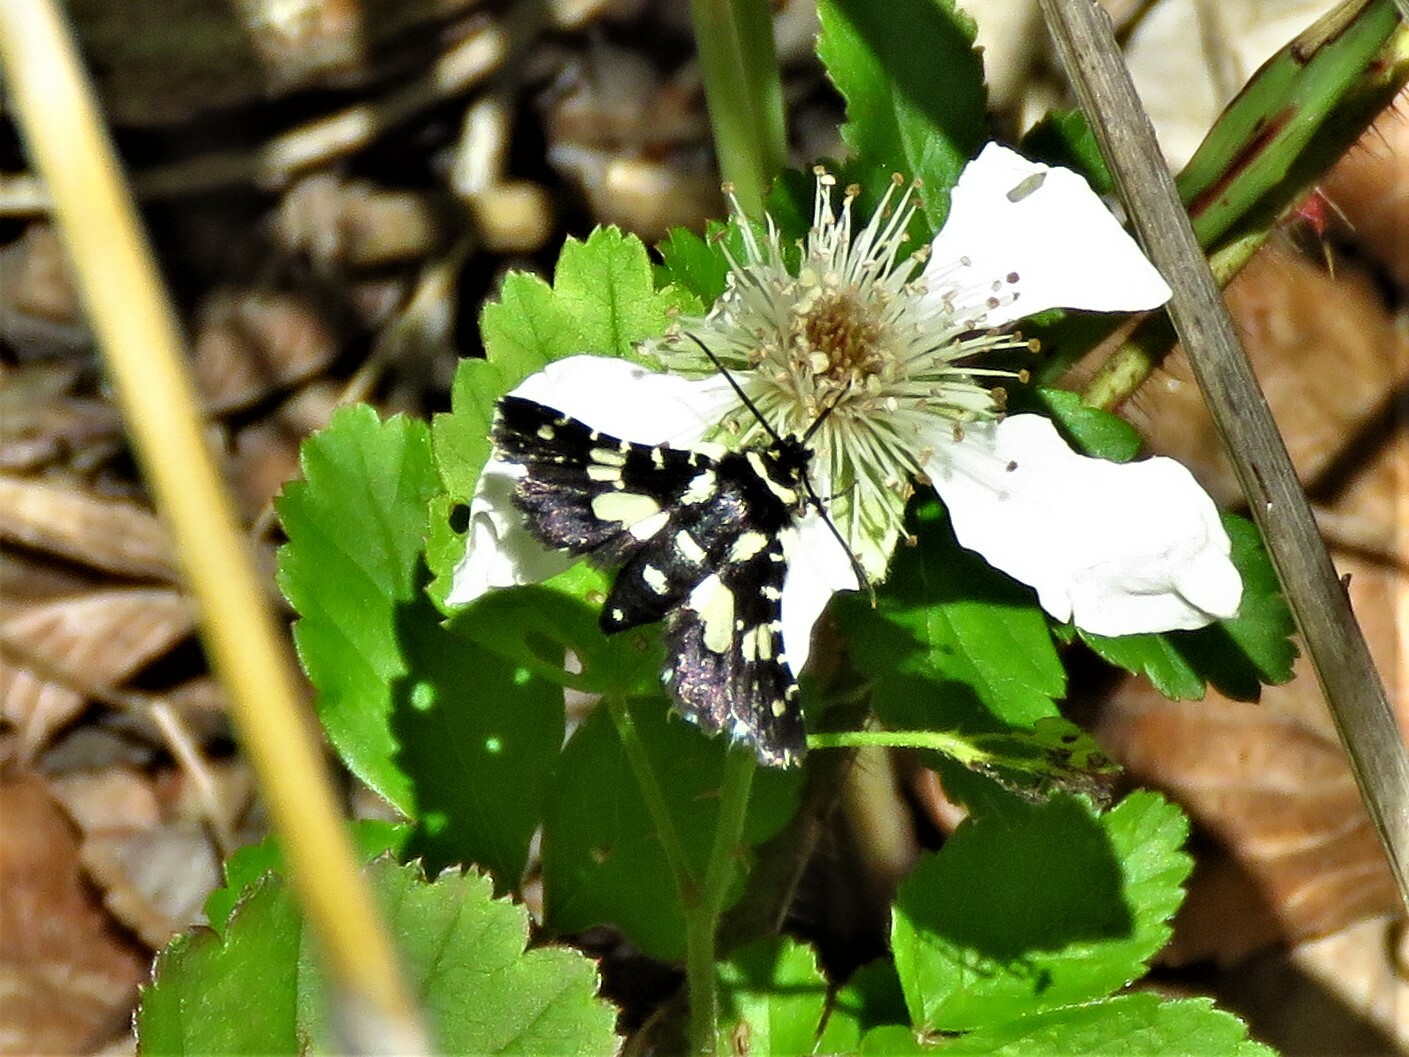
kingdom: Animalia
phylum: Arthropoda
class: Insecta
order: Lepidoptera
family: Thyrididae
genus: Pseudothyris
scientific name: Pseudothyris sepulchralis
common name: Mournful thyris moth
